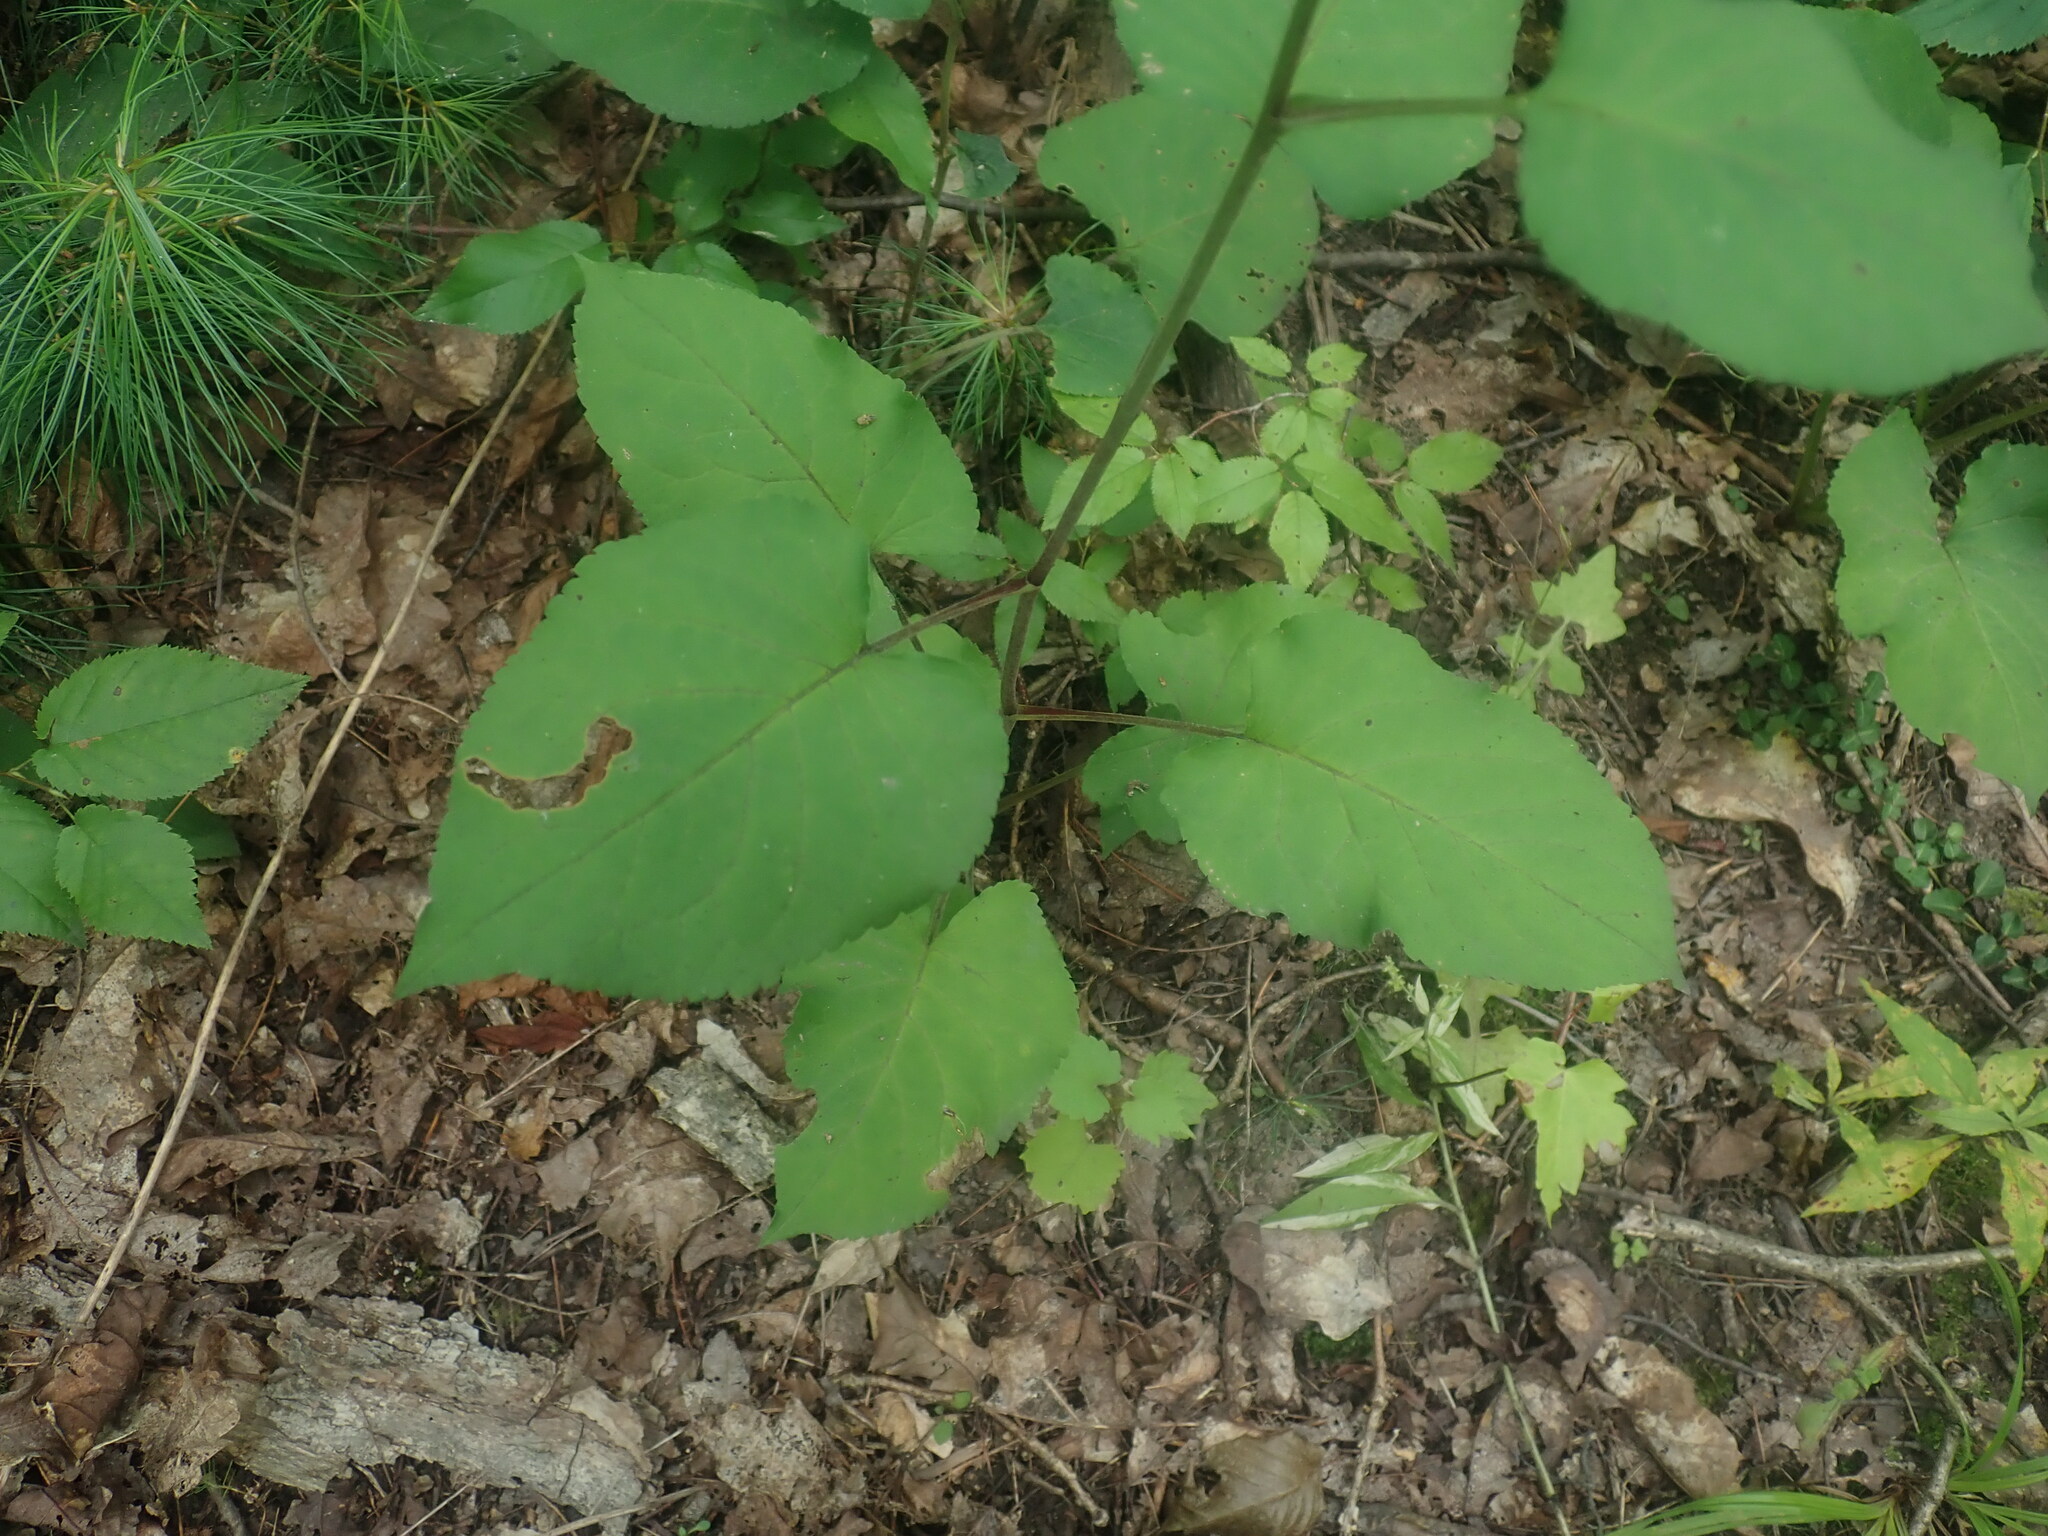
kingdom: Plantae
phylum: Tracheophyta
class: Magnoliopsida
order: Asterales
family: Asteraceae
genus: Eurybia
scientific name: Eurybia macrophylla
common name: Big-leaved aster
